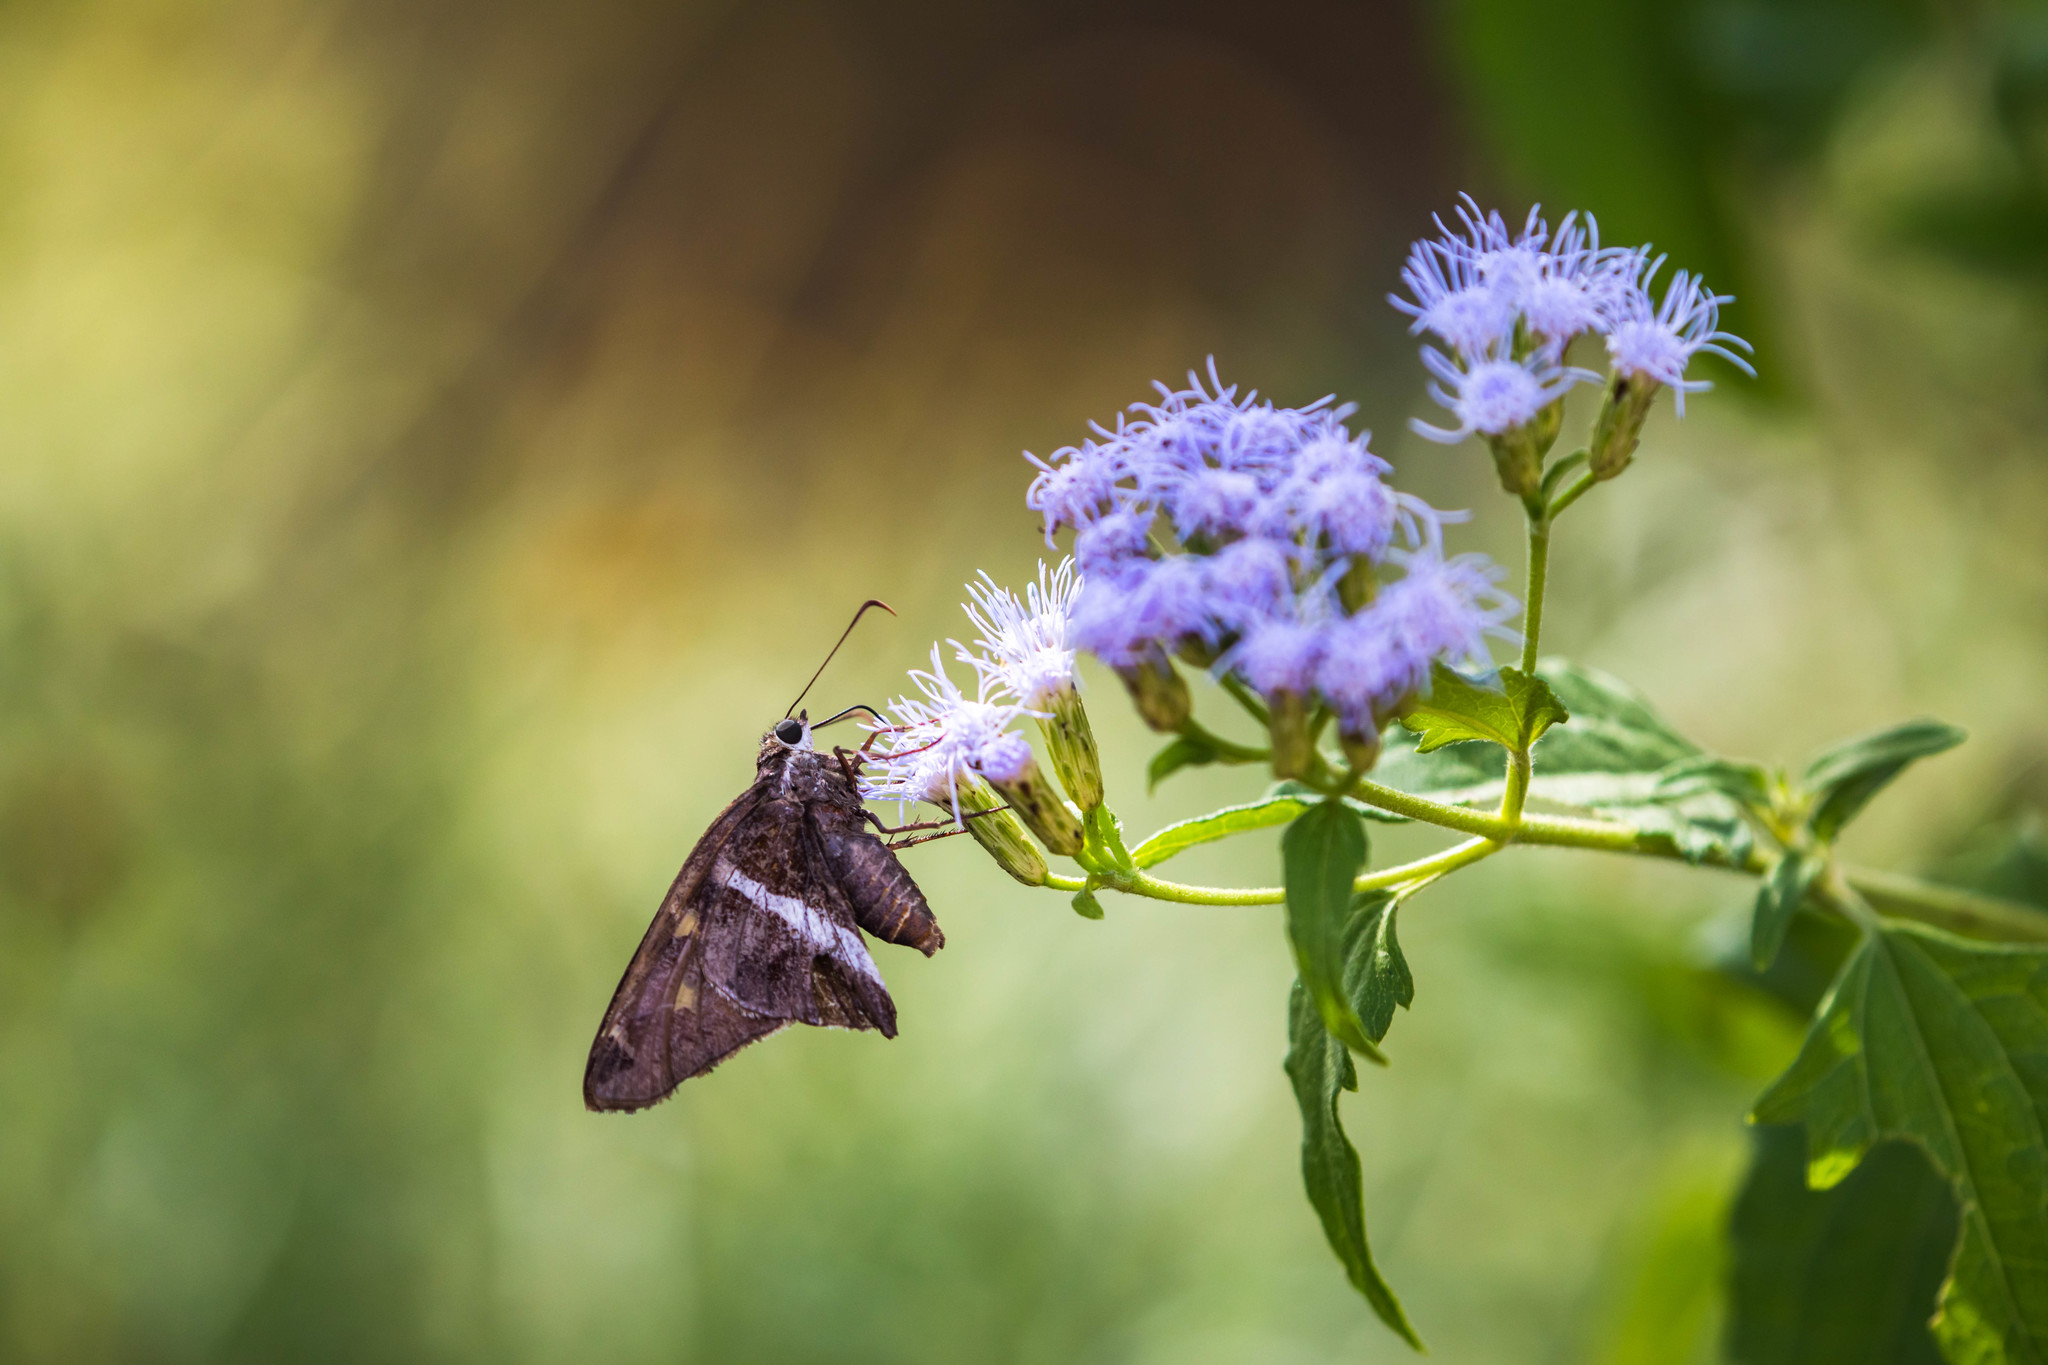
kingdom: Animalia
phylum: Arthropoda
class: Insecta
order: Lepidoptera
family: Hesperiidae
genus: Chioides
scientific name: Chioides catillus
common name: Silverbanded skipper
